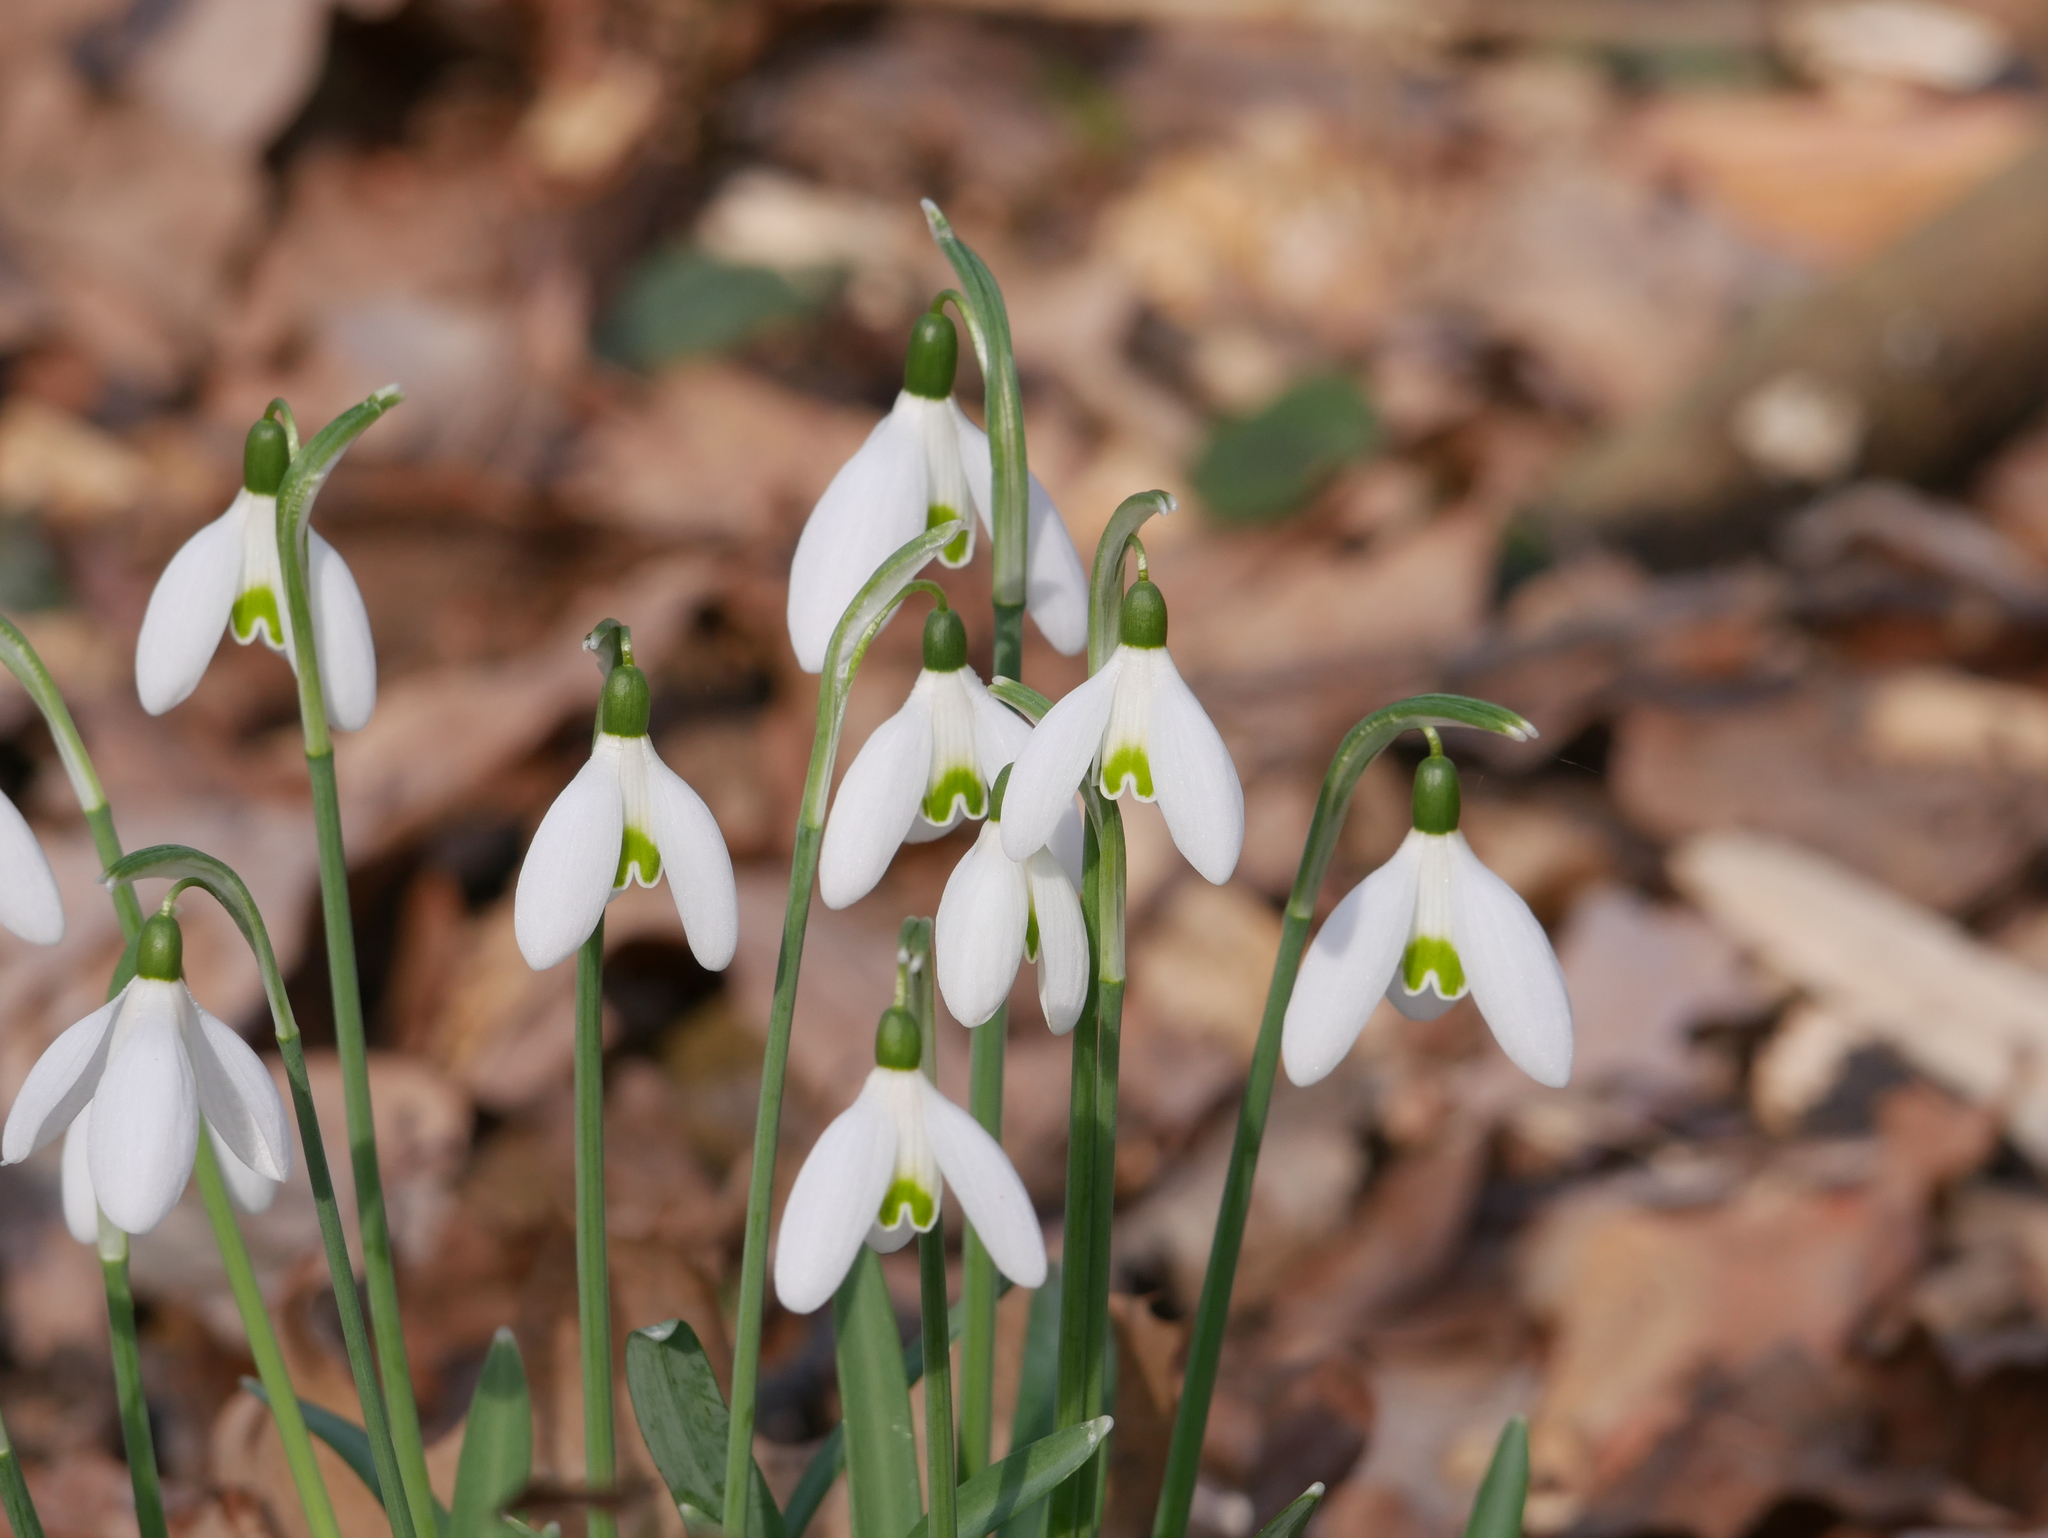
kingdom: Plantae
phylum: Tracheophyta
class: Liliopsida
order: Asparagales
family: Amaryllidaceae
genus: Galanthus
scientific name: Galanthus nivalis
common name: Snowdrop
